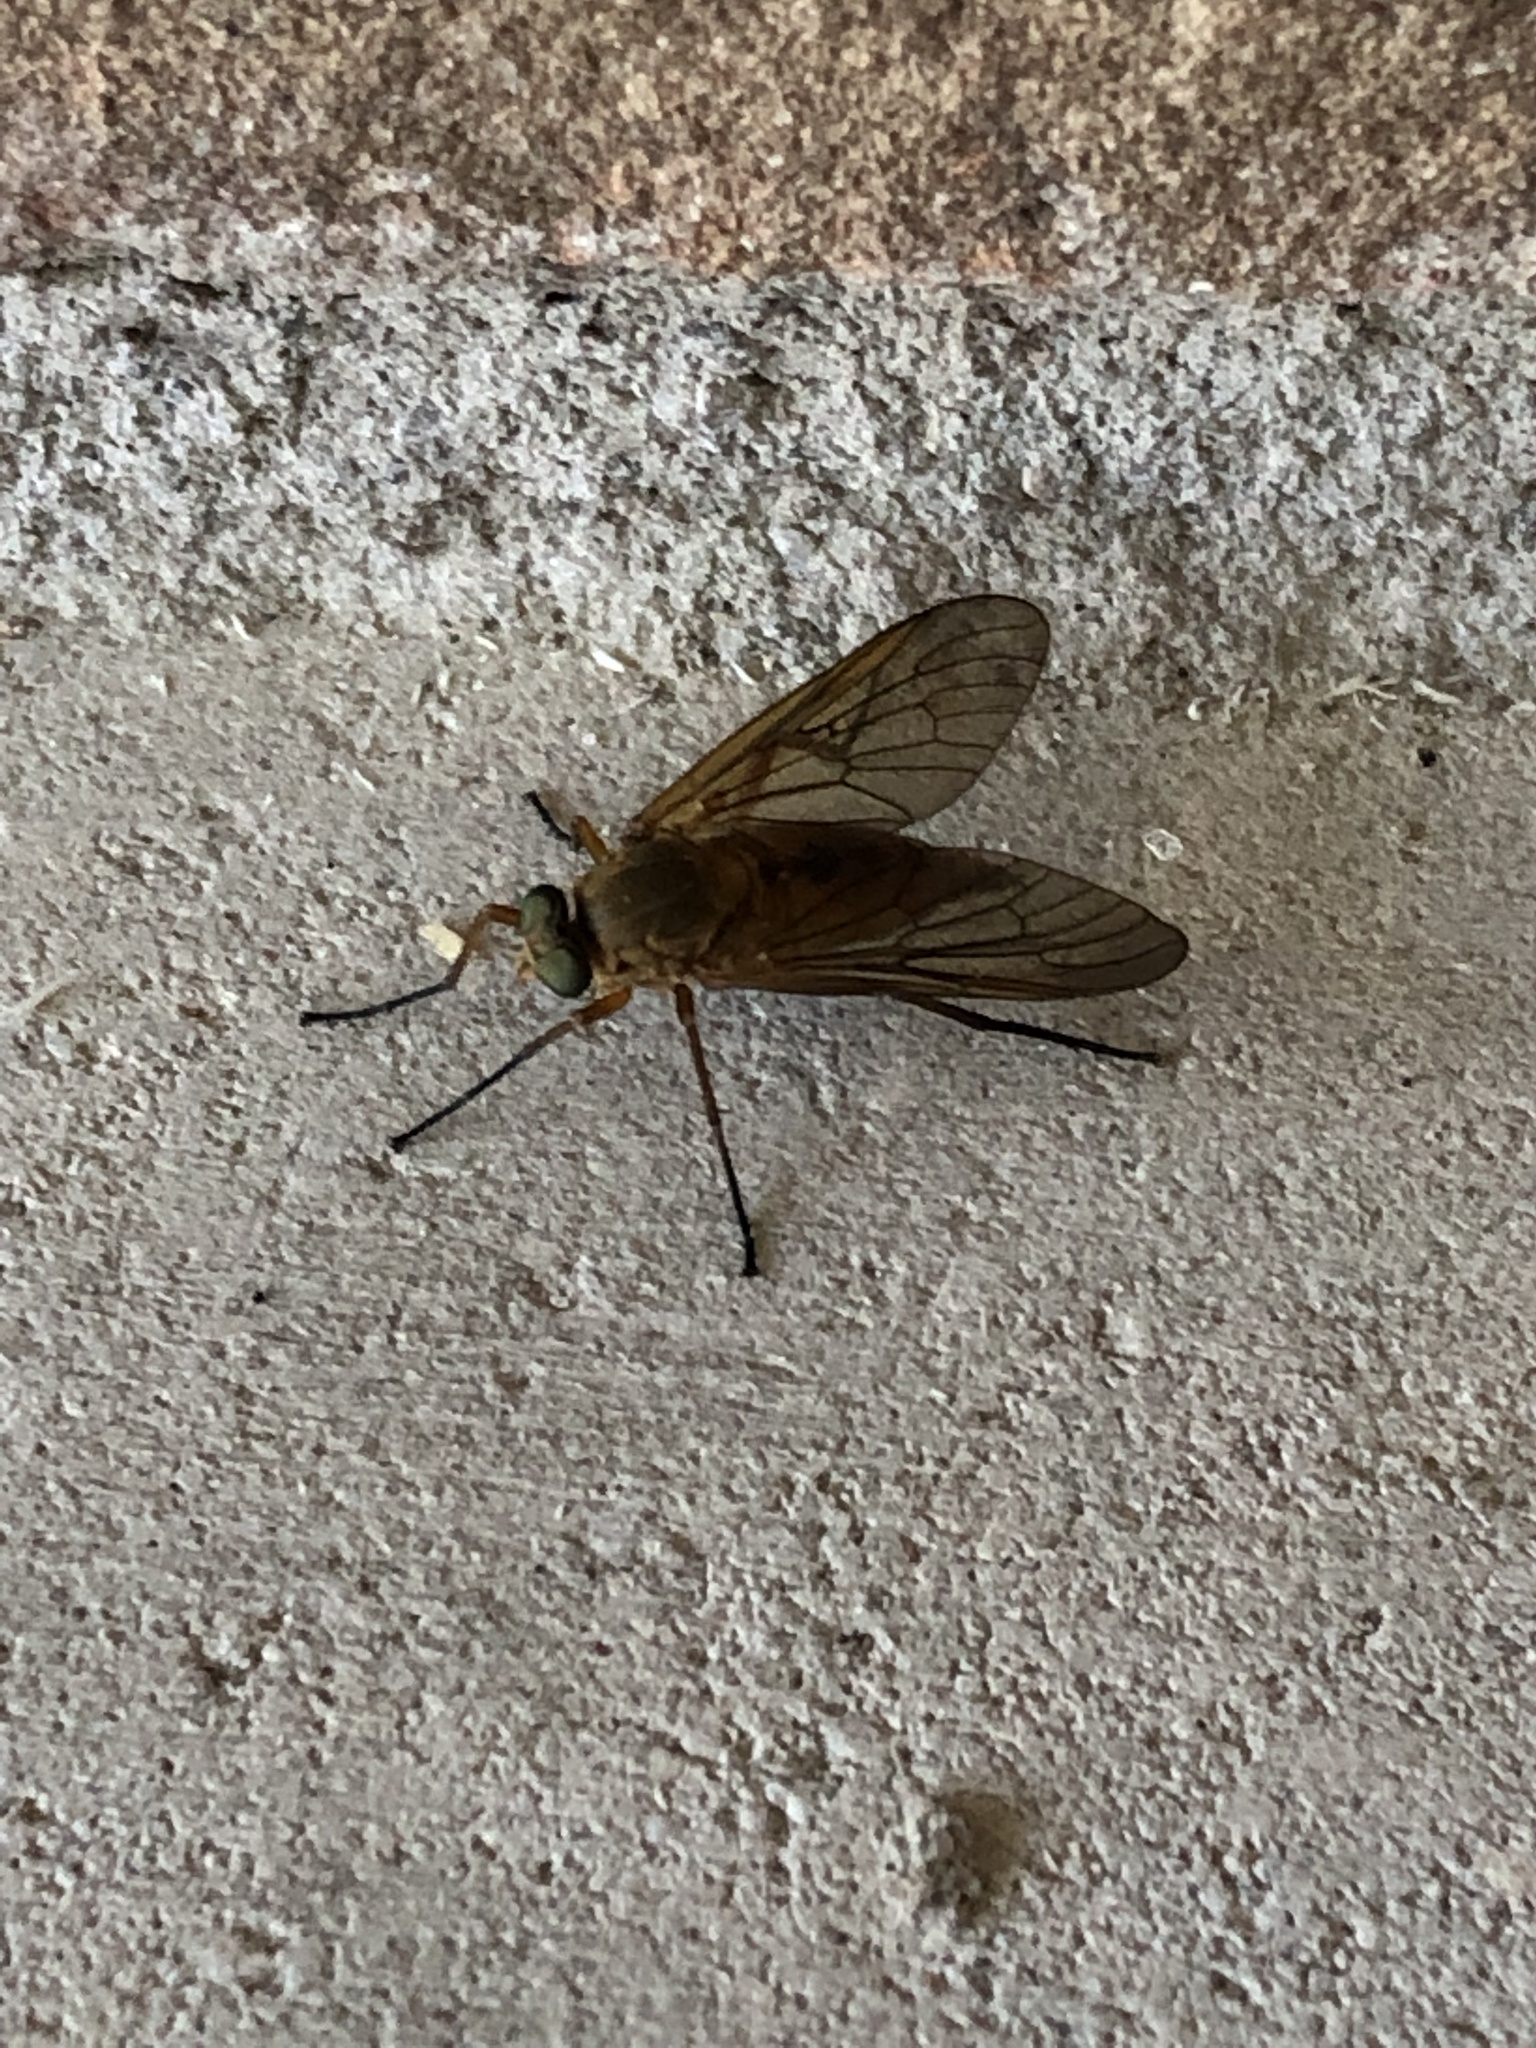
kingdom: Animalia
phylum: Arthropoda
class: Insecta
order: Diptera
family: Rhagionidae
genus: Rhagio
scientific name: Rhagio tringaria
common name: Marsh snipefly
